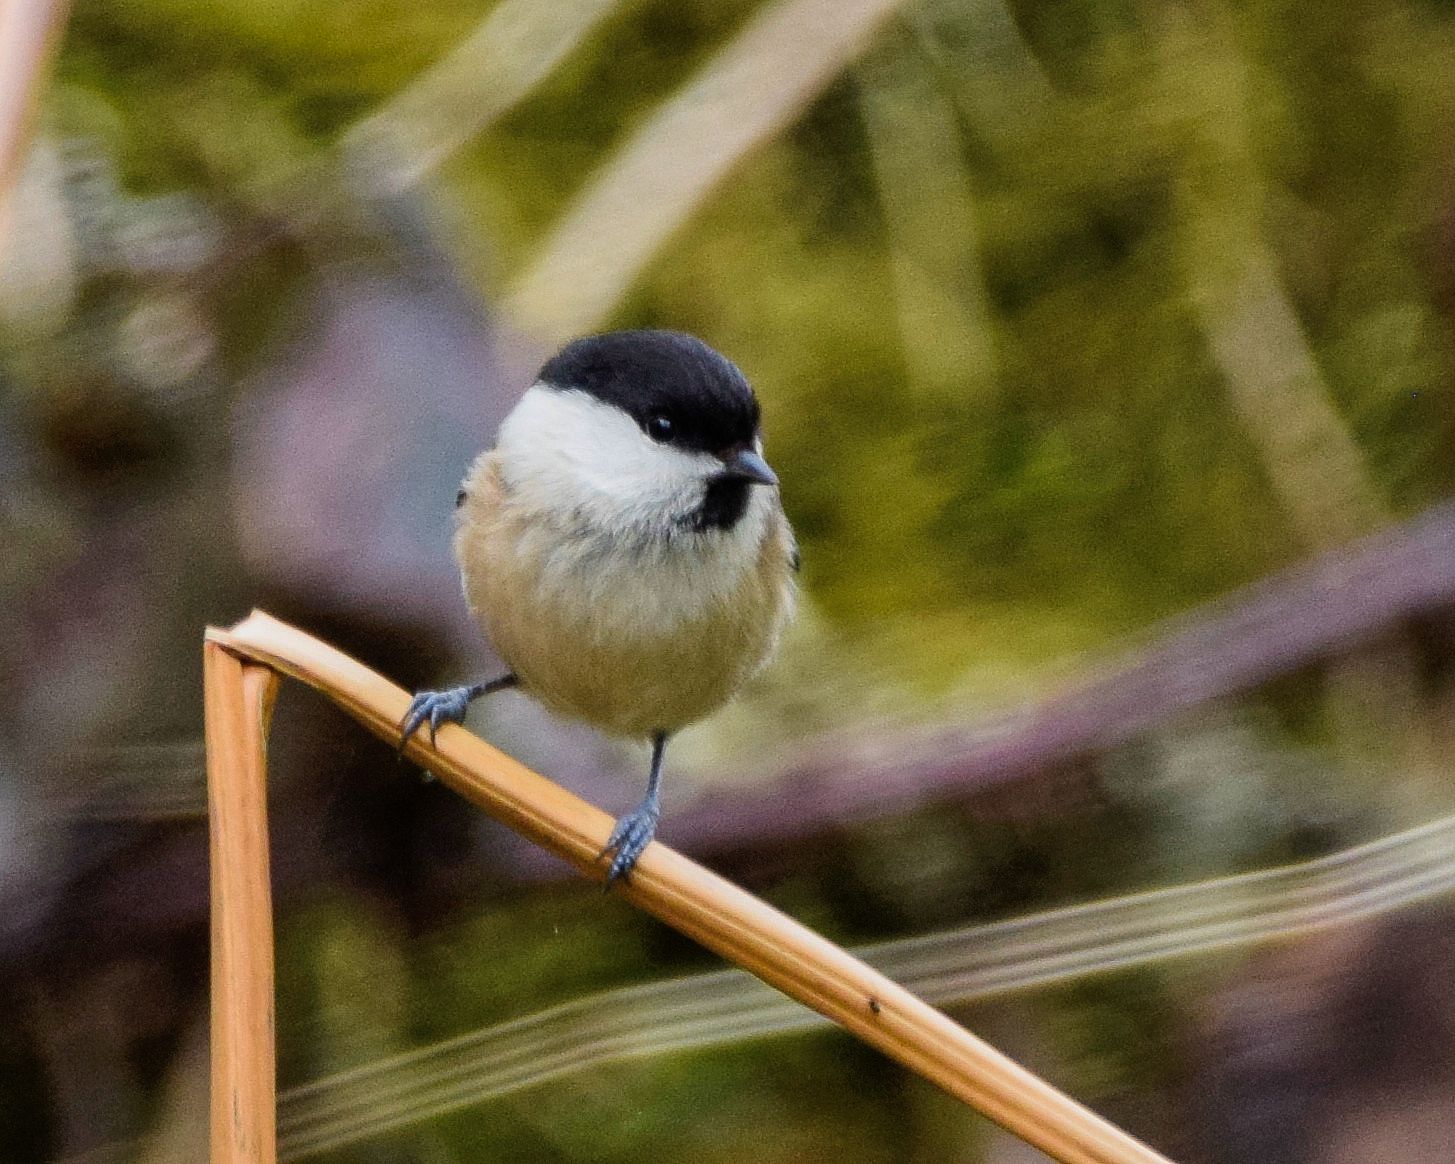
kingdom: Animalia
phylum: Chordata
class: Aves
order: Passeriformes
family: Paridae
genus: Poecile
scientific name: Poecile montanus
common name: Willow tit
